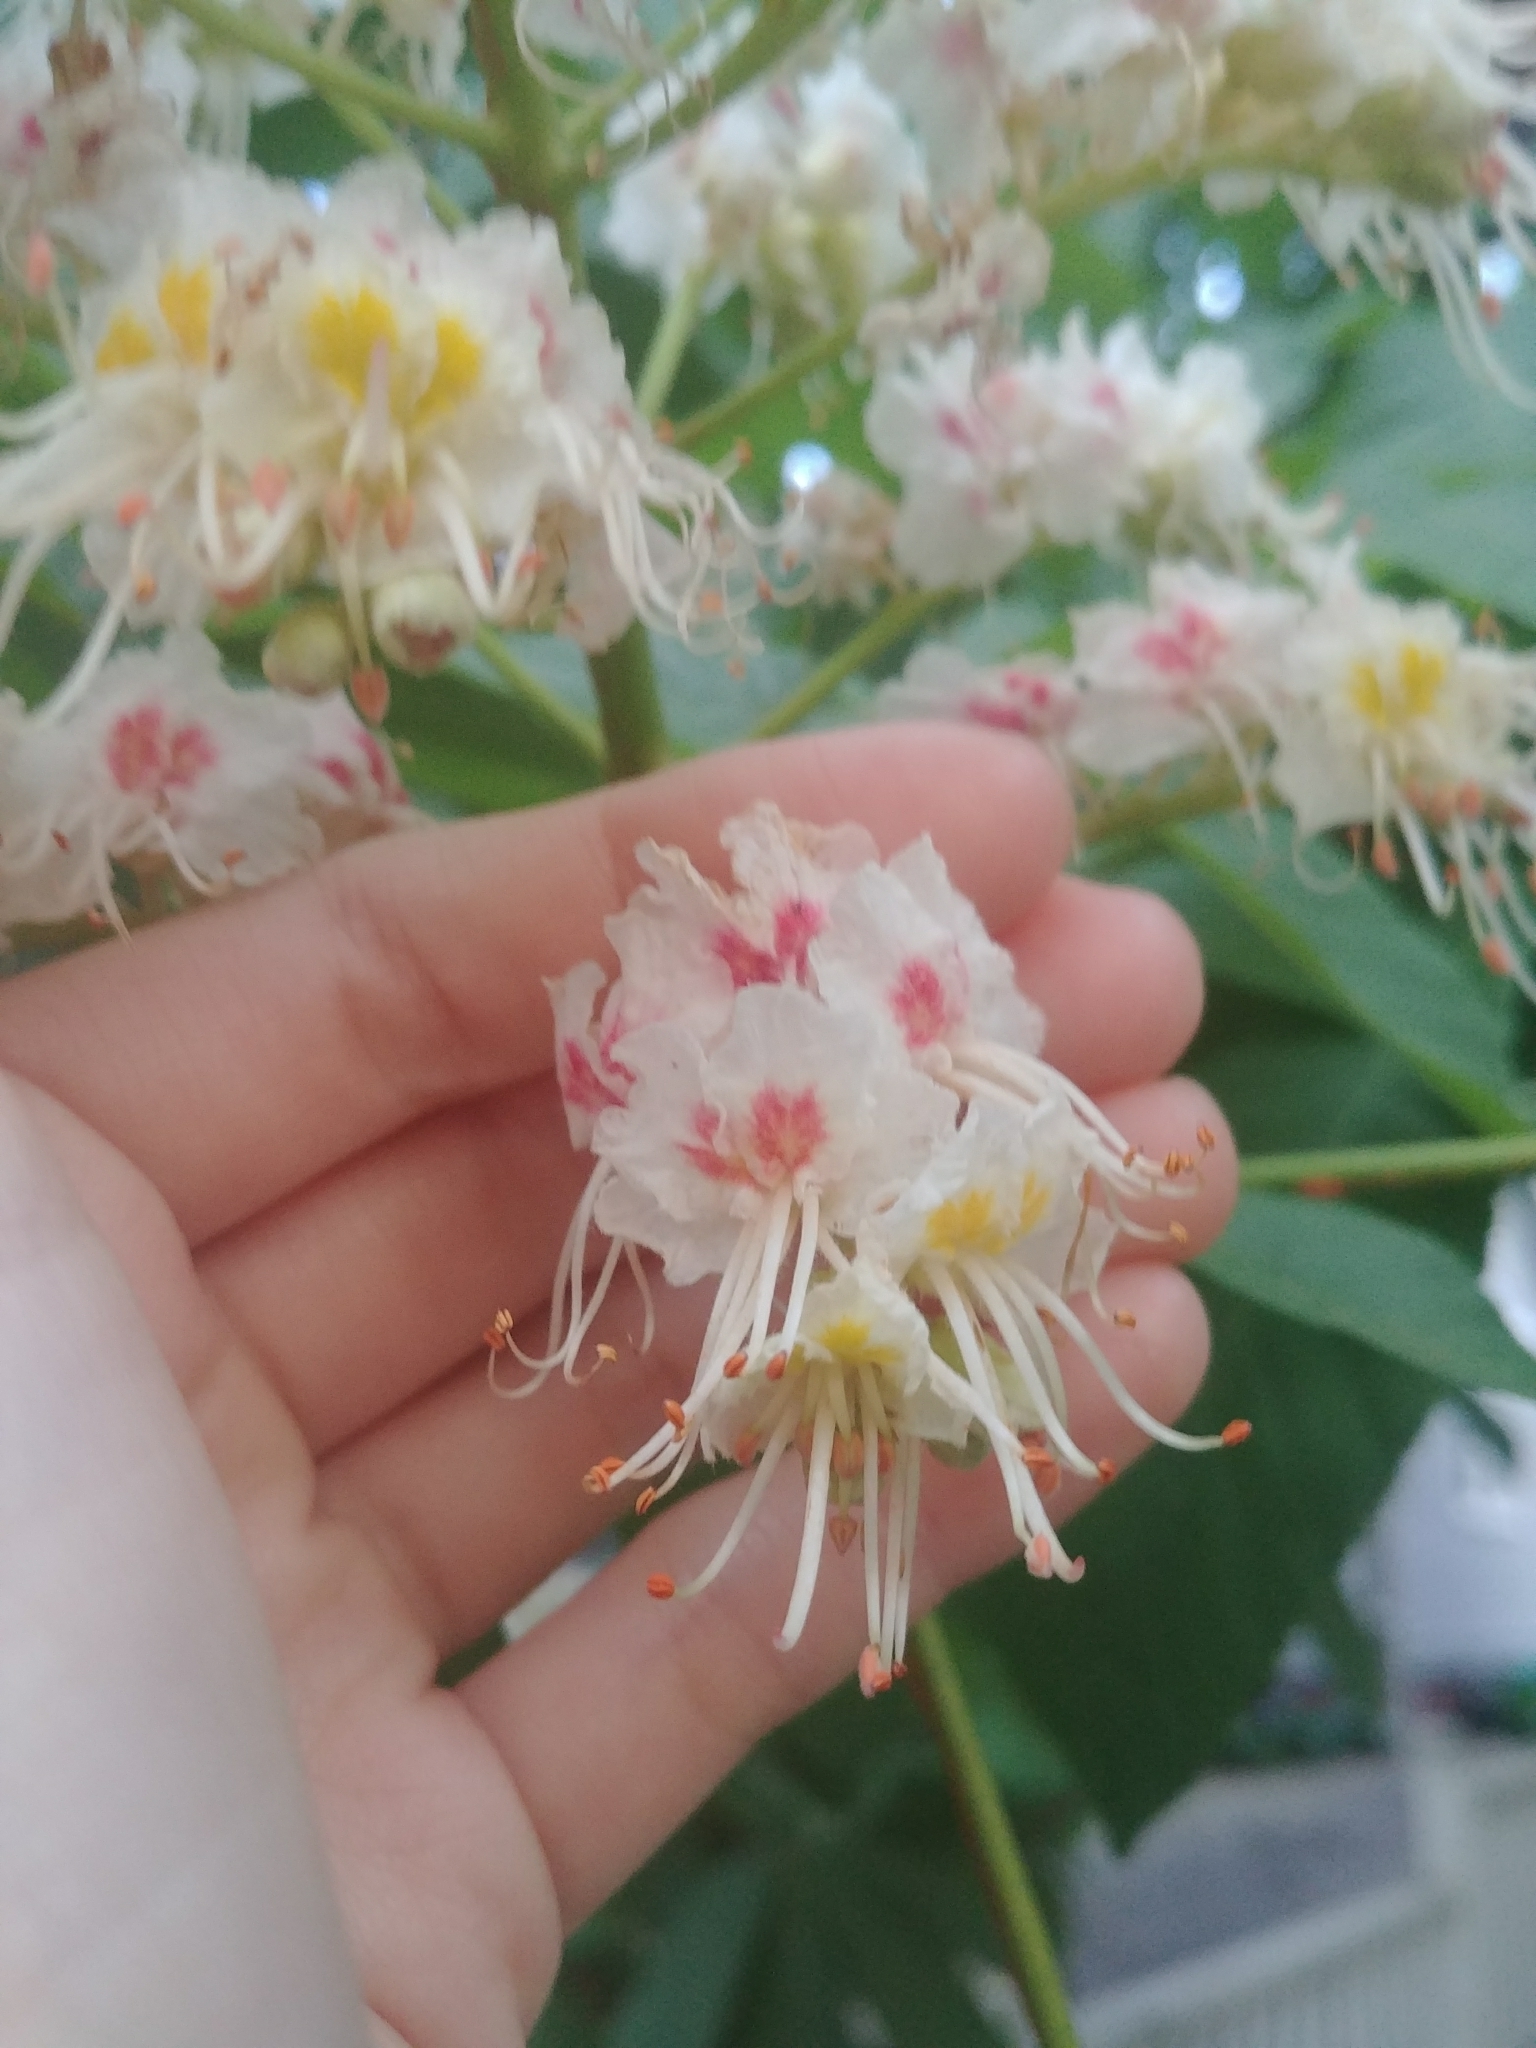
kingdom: Plantae
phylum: Tracheophyta
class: Magnoliopsida
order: Sapindales
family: Sapindaceae
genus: Aesculus
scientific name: Aesculus hippocastanum
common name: Horse-chestnut
